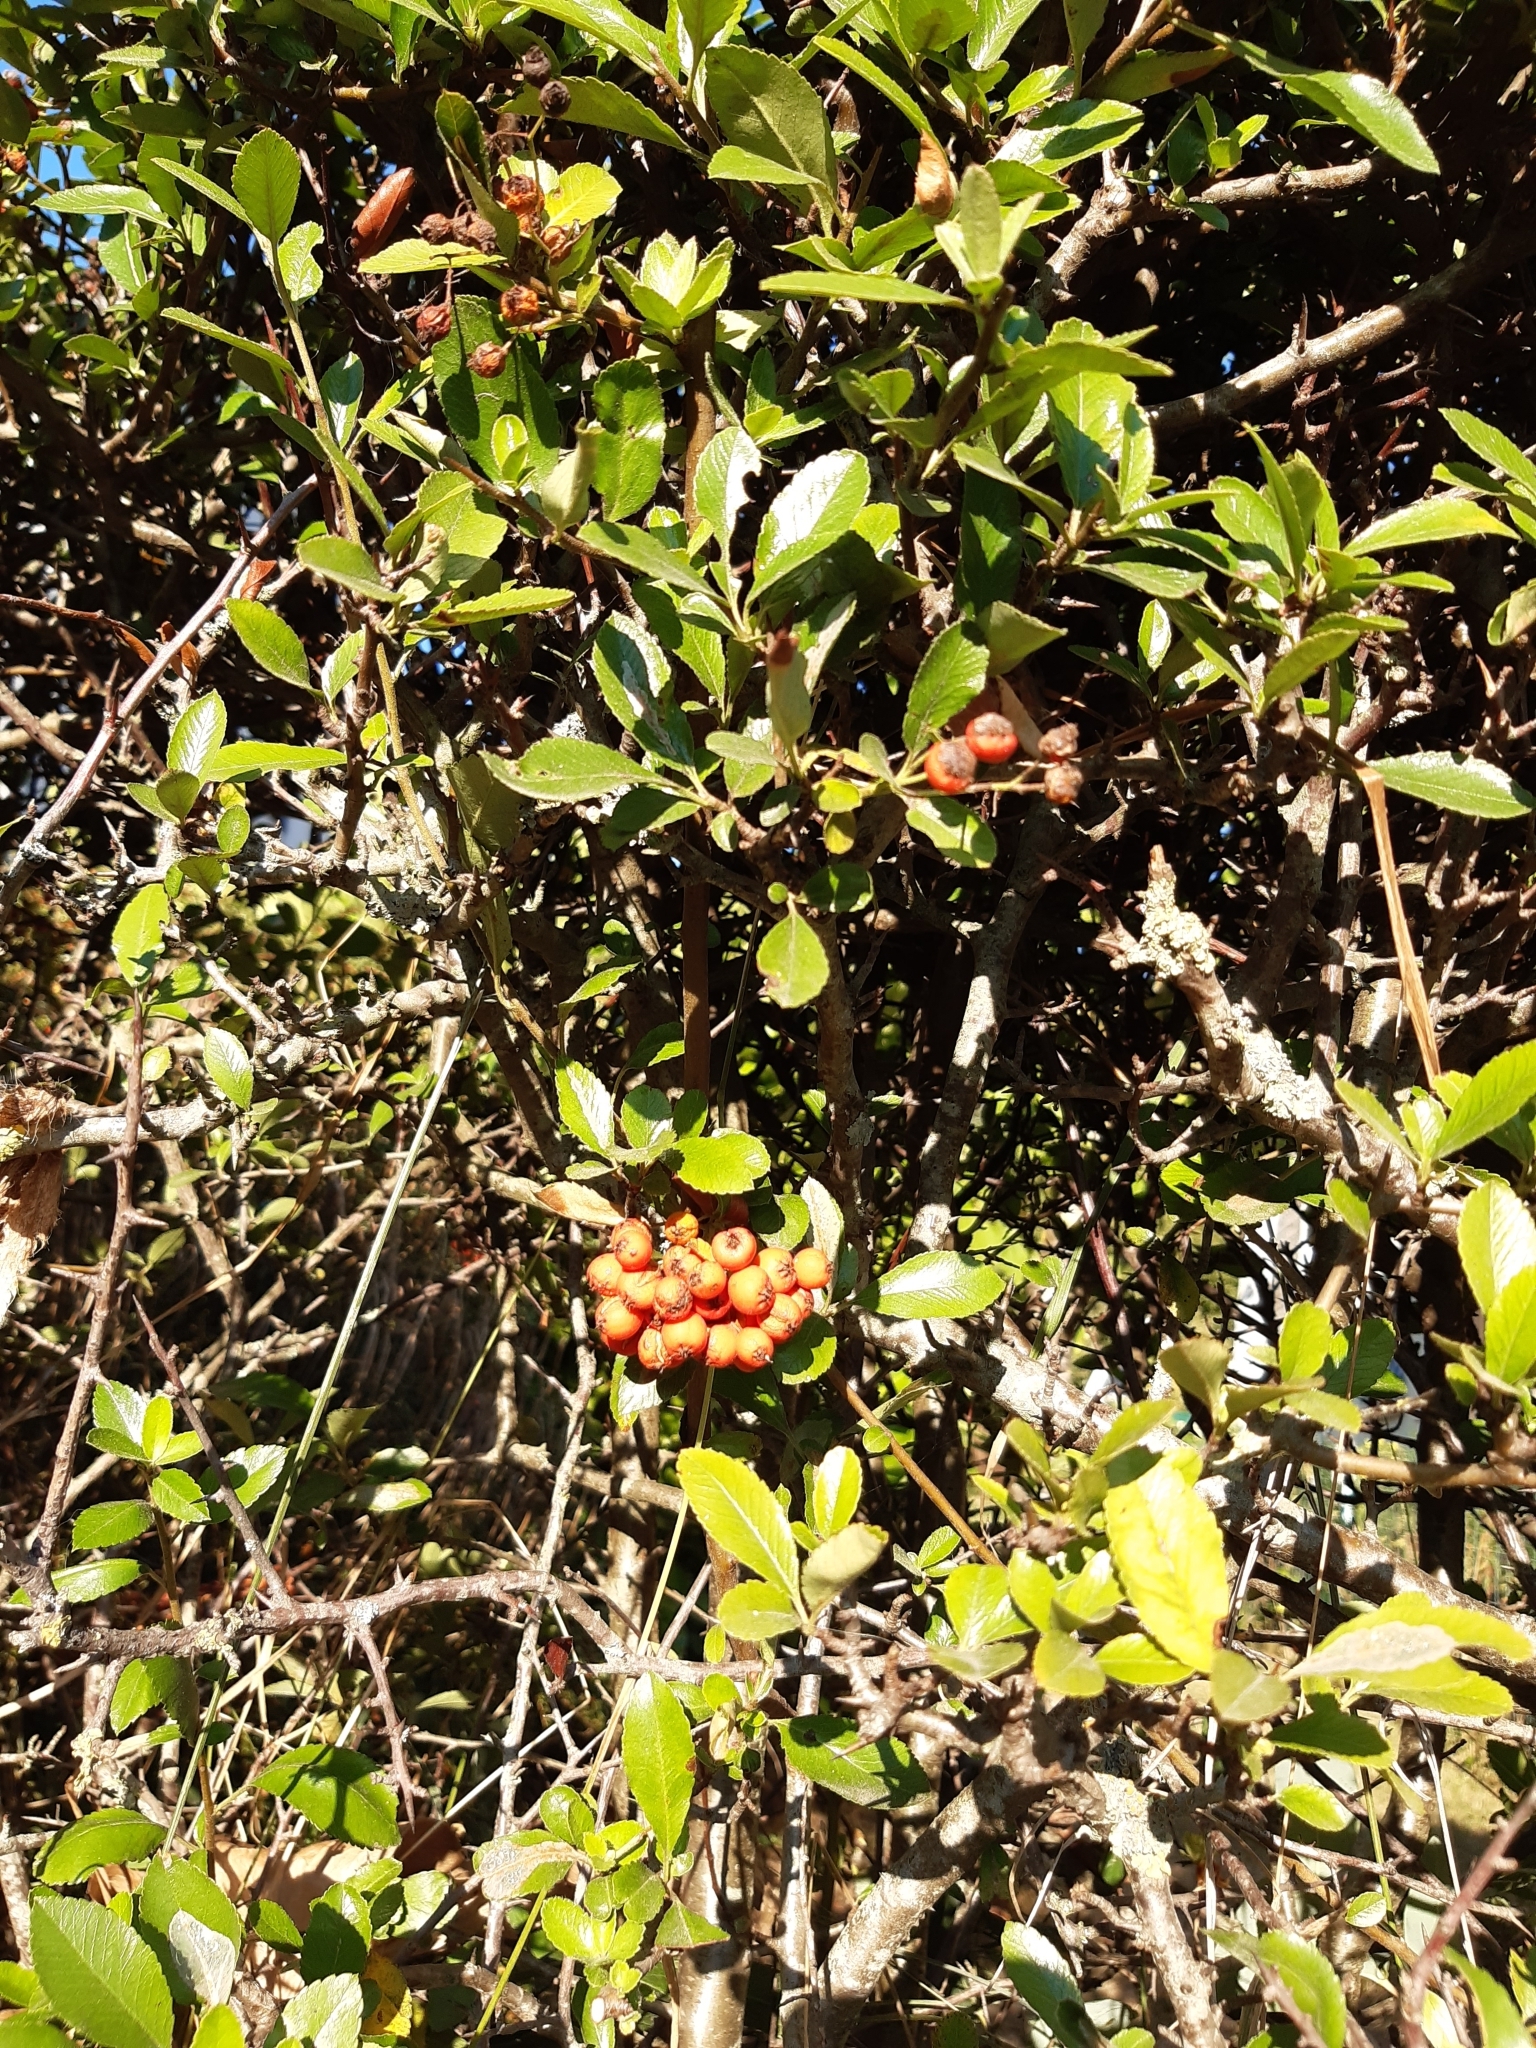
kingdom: Plantae
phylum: Tracheophyta
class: Magnoliopsida
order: Rosales
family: Rosaceae
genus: Pyracantha
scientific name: Pyracantha coccinea
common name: Firethorn
